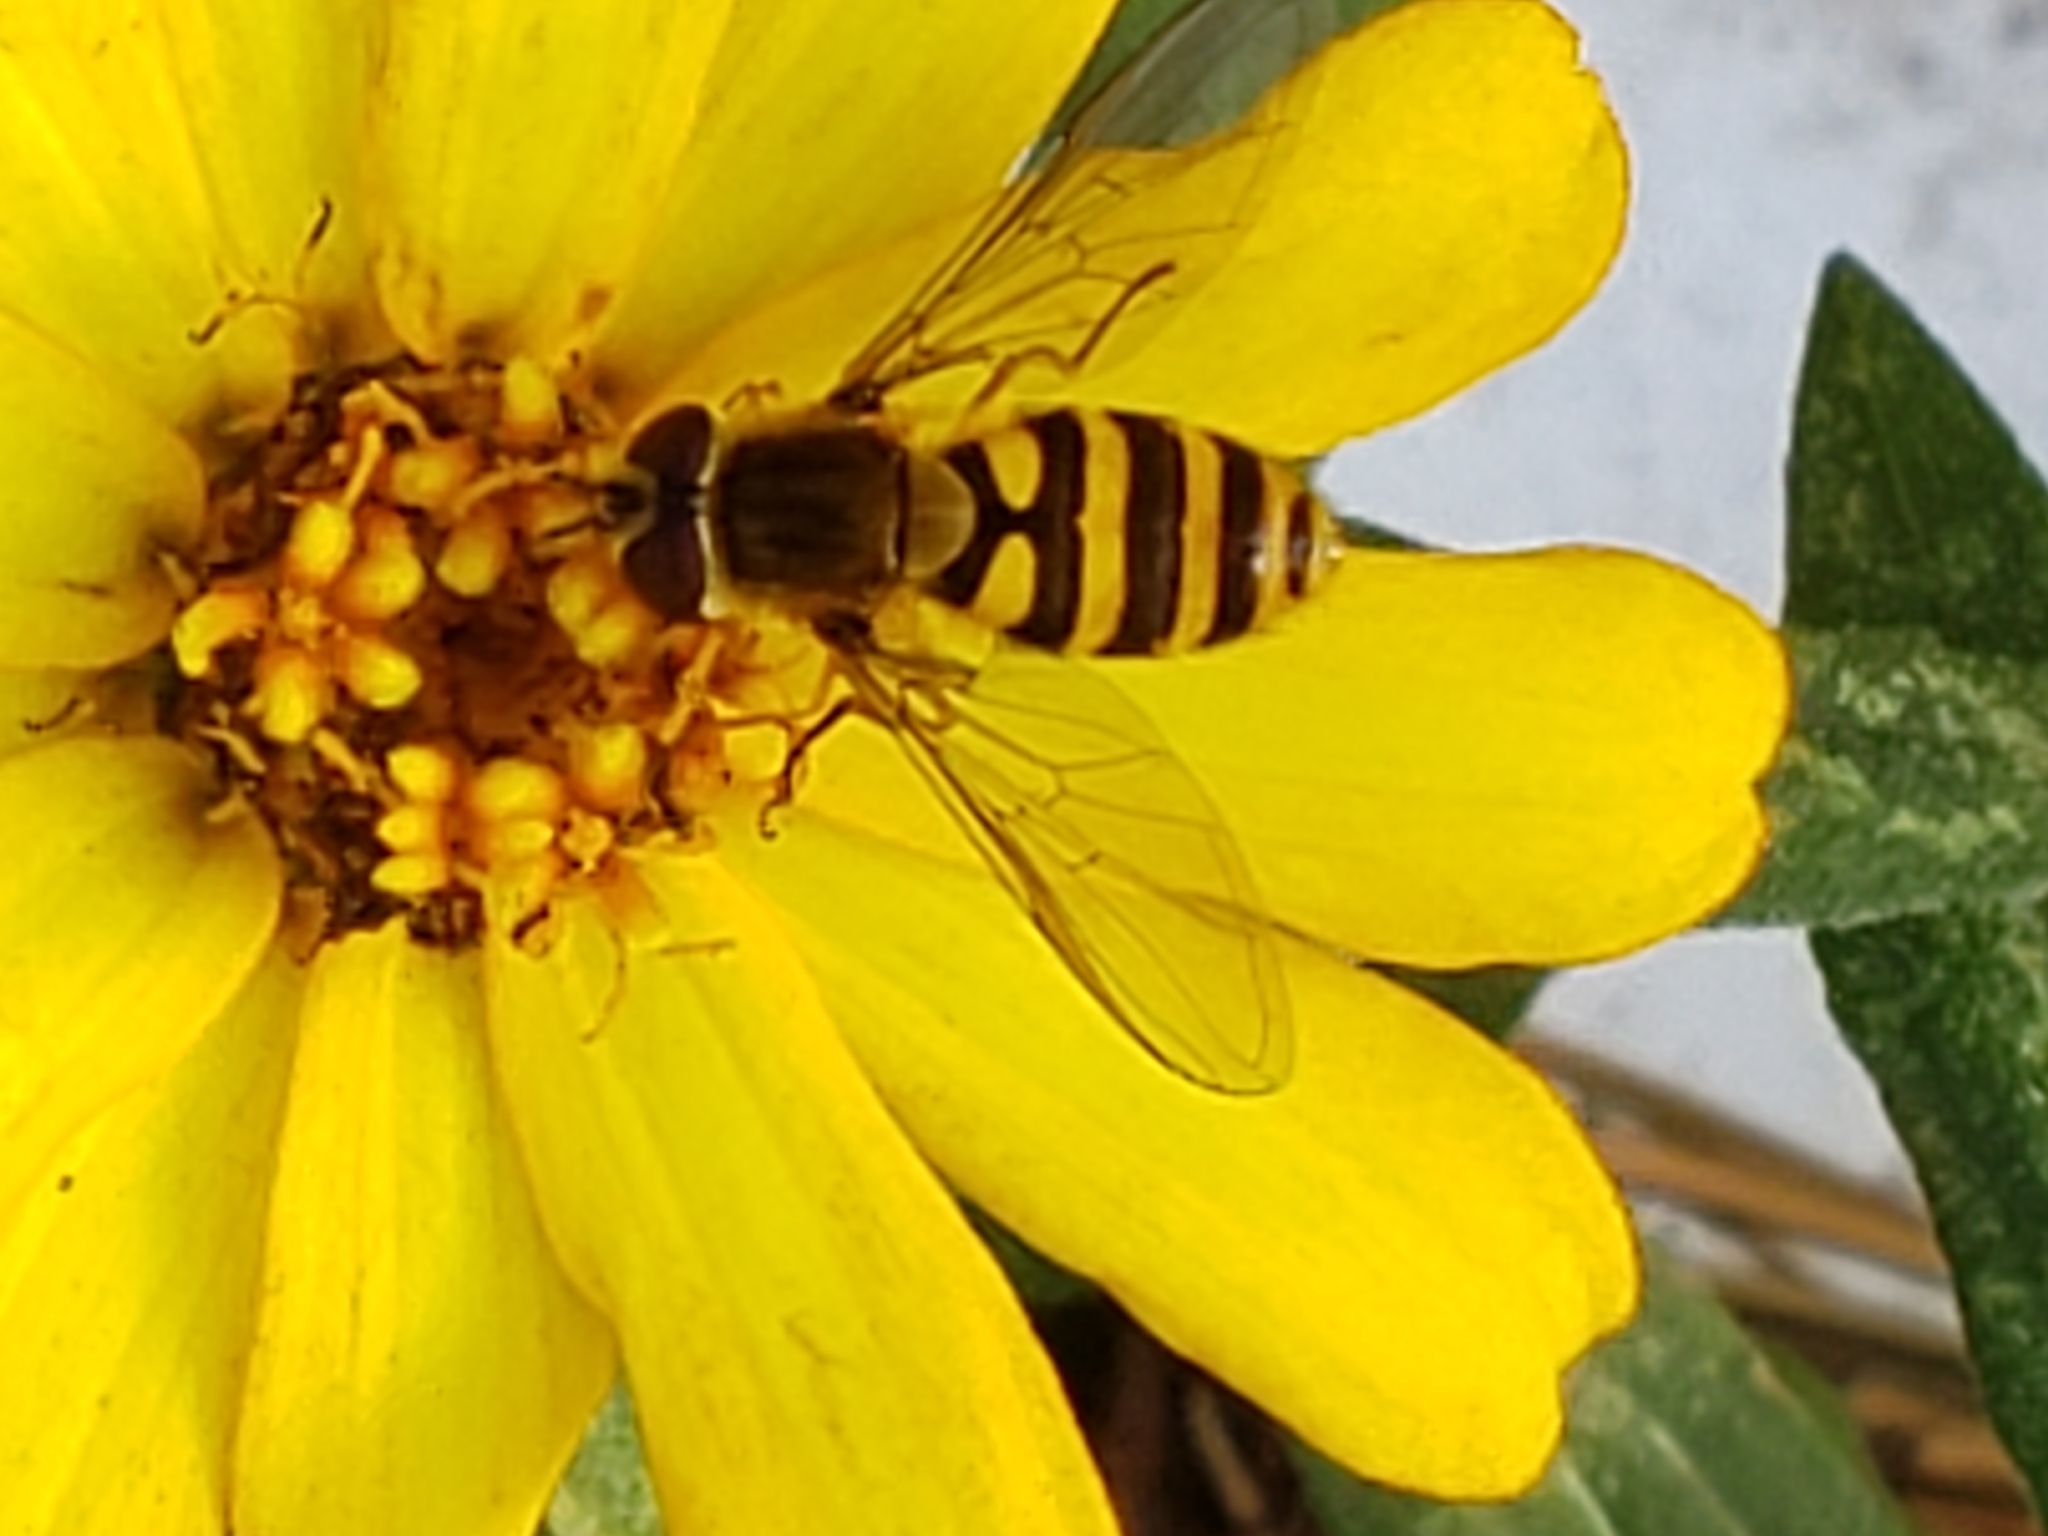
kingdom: Animalia
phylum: Arthropoda
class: Insecta
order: Diptera
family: Syrphidae
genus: Syrphus
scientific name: Syrphus
